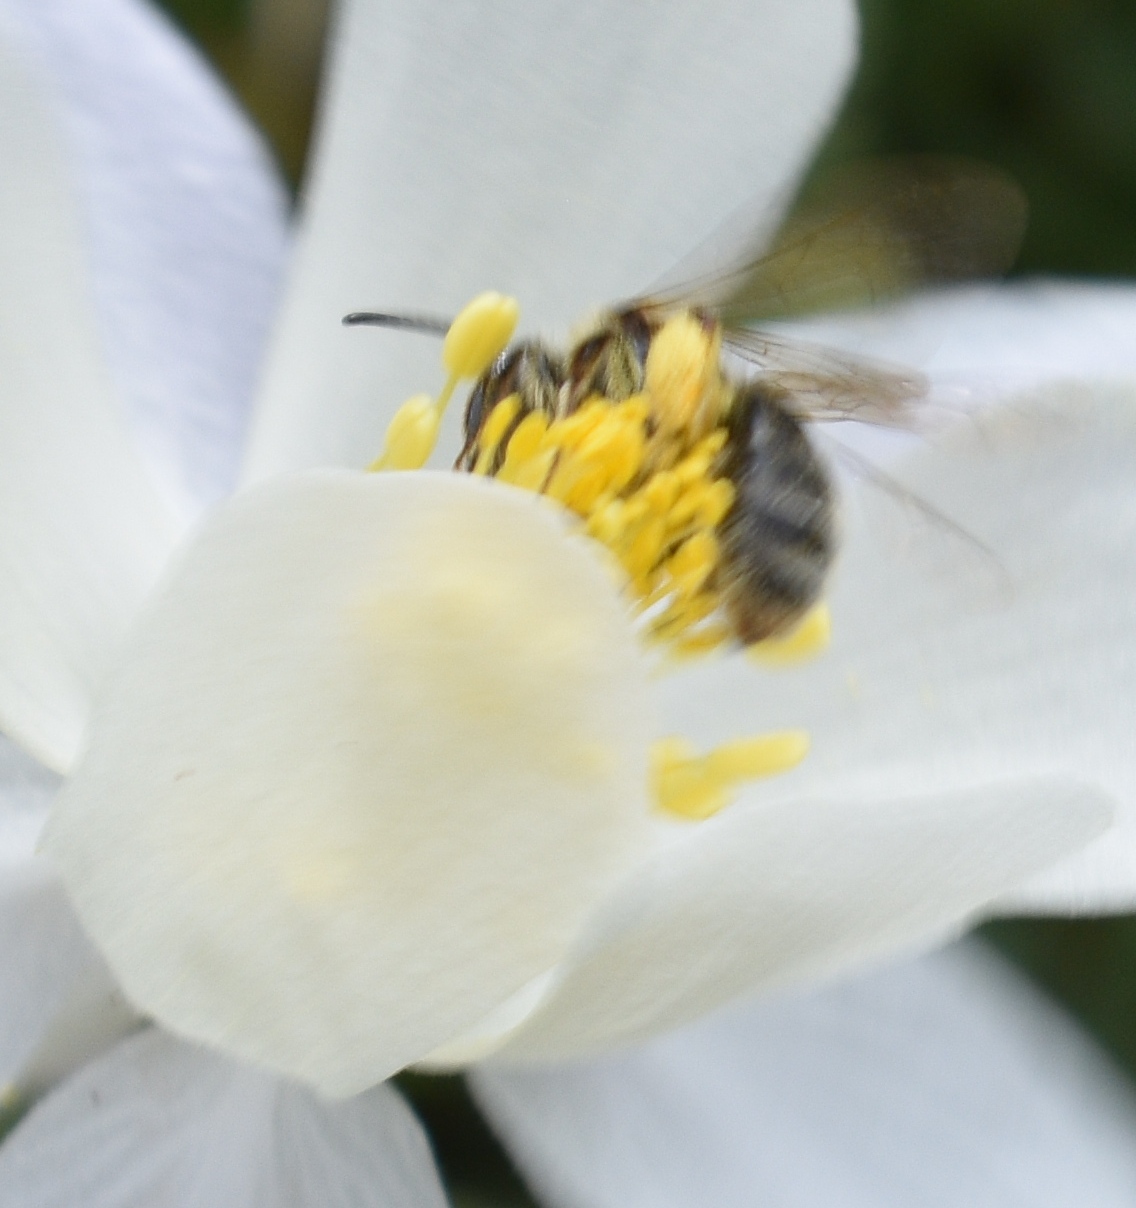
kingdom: Animalia
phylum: Arthropoda
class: Insecta
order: Hymenoptera
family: Andrenidae
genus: Andrena
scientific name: Andrena
